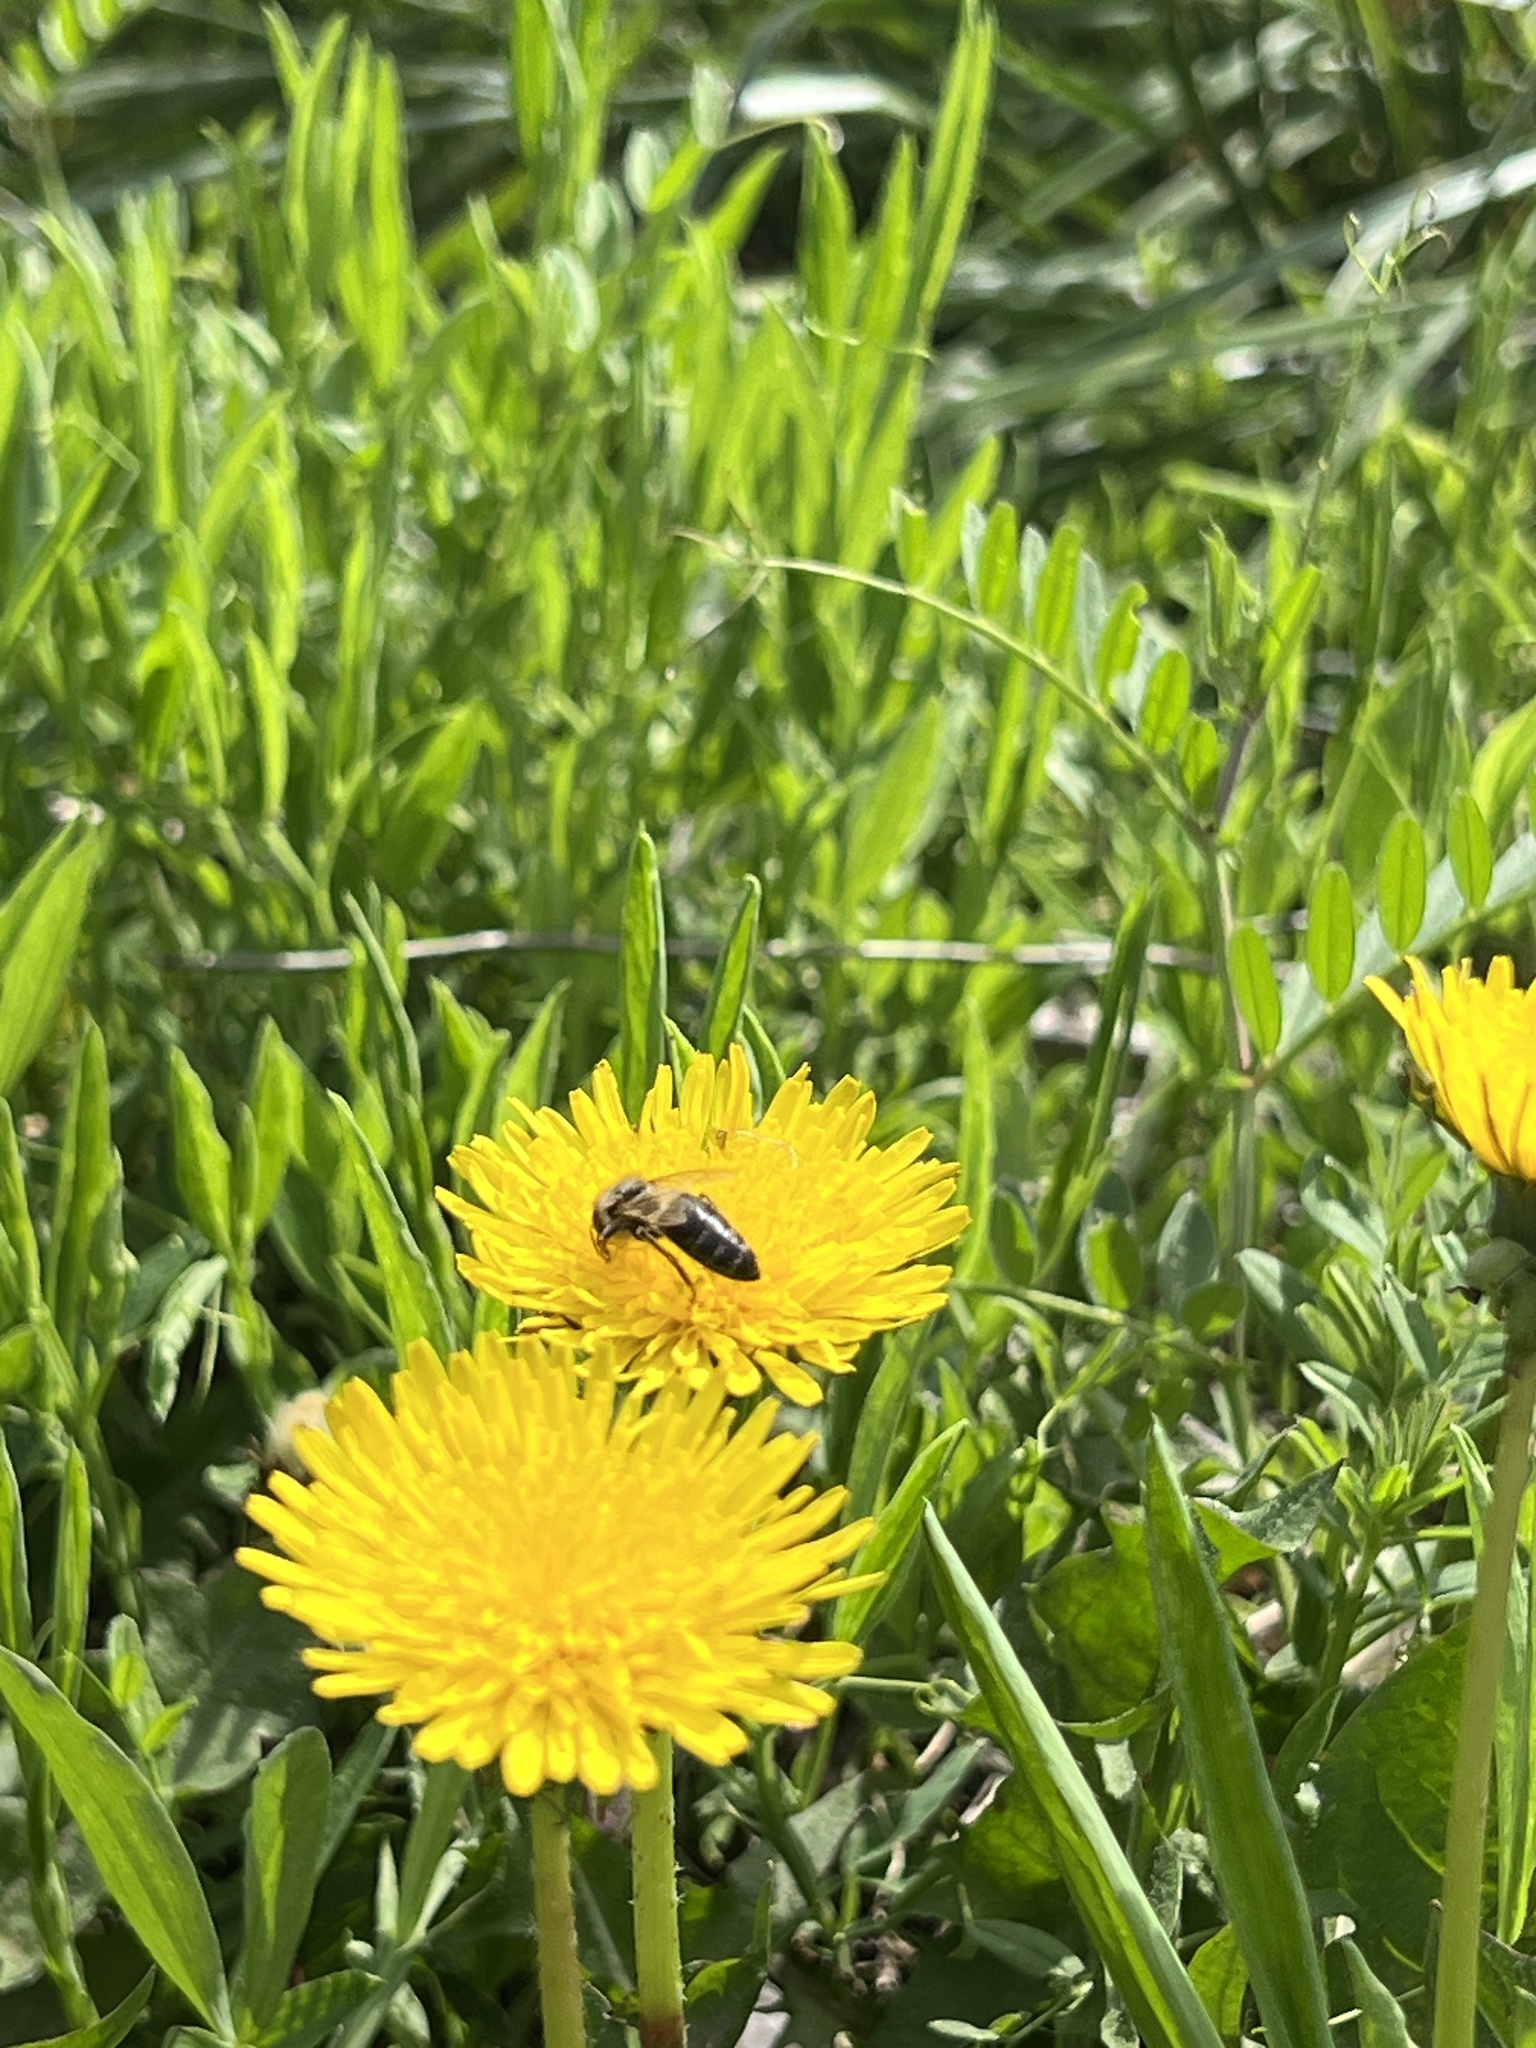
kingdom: Animalia
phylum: Arthropoda
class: Insecta
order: Hymenoptera
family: Apidae
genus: Apis
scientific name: Apis mellifera
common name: Honey bee
